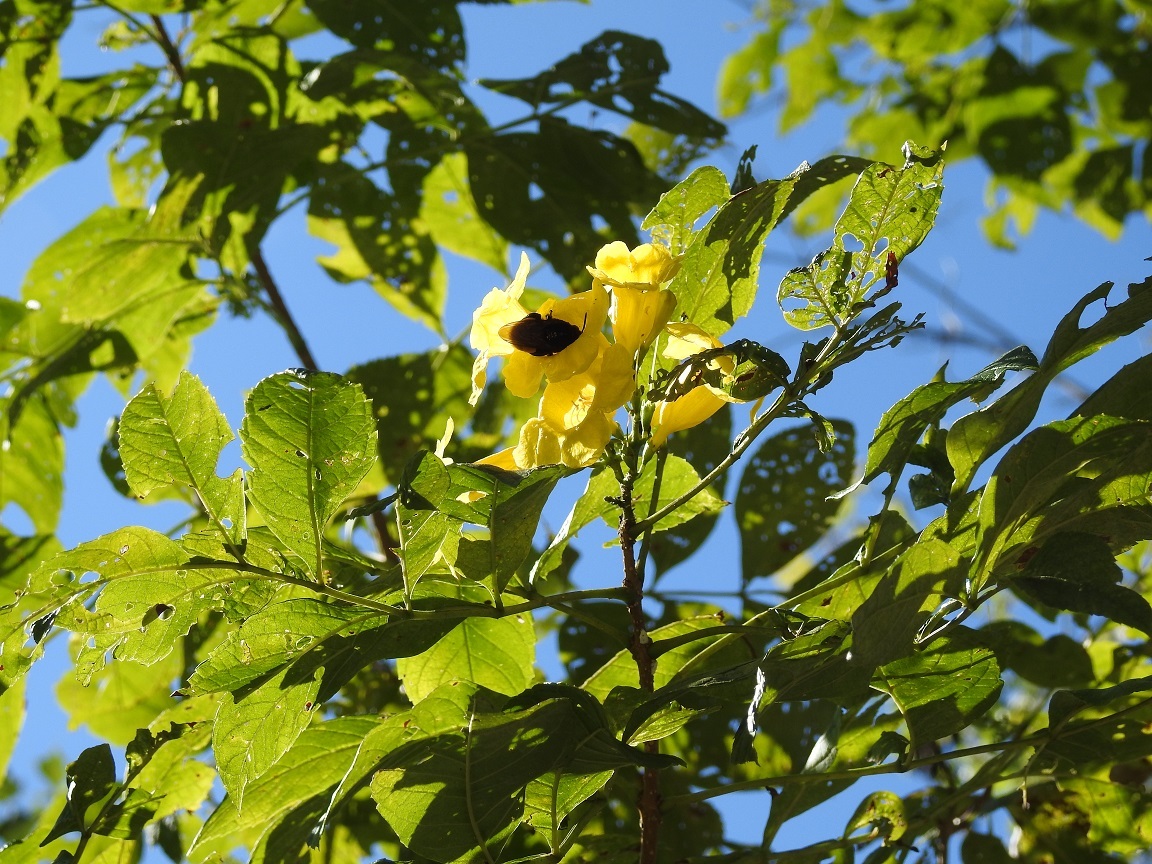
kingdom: Plantae
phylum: Tracheophyta
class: Magnoliopsida
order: Lamiales
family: Bignoniaceae
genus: Tecoma
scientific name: Tecoma stans
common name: Yellow trumpetbush
